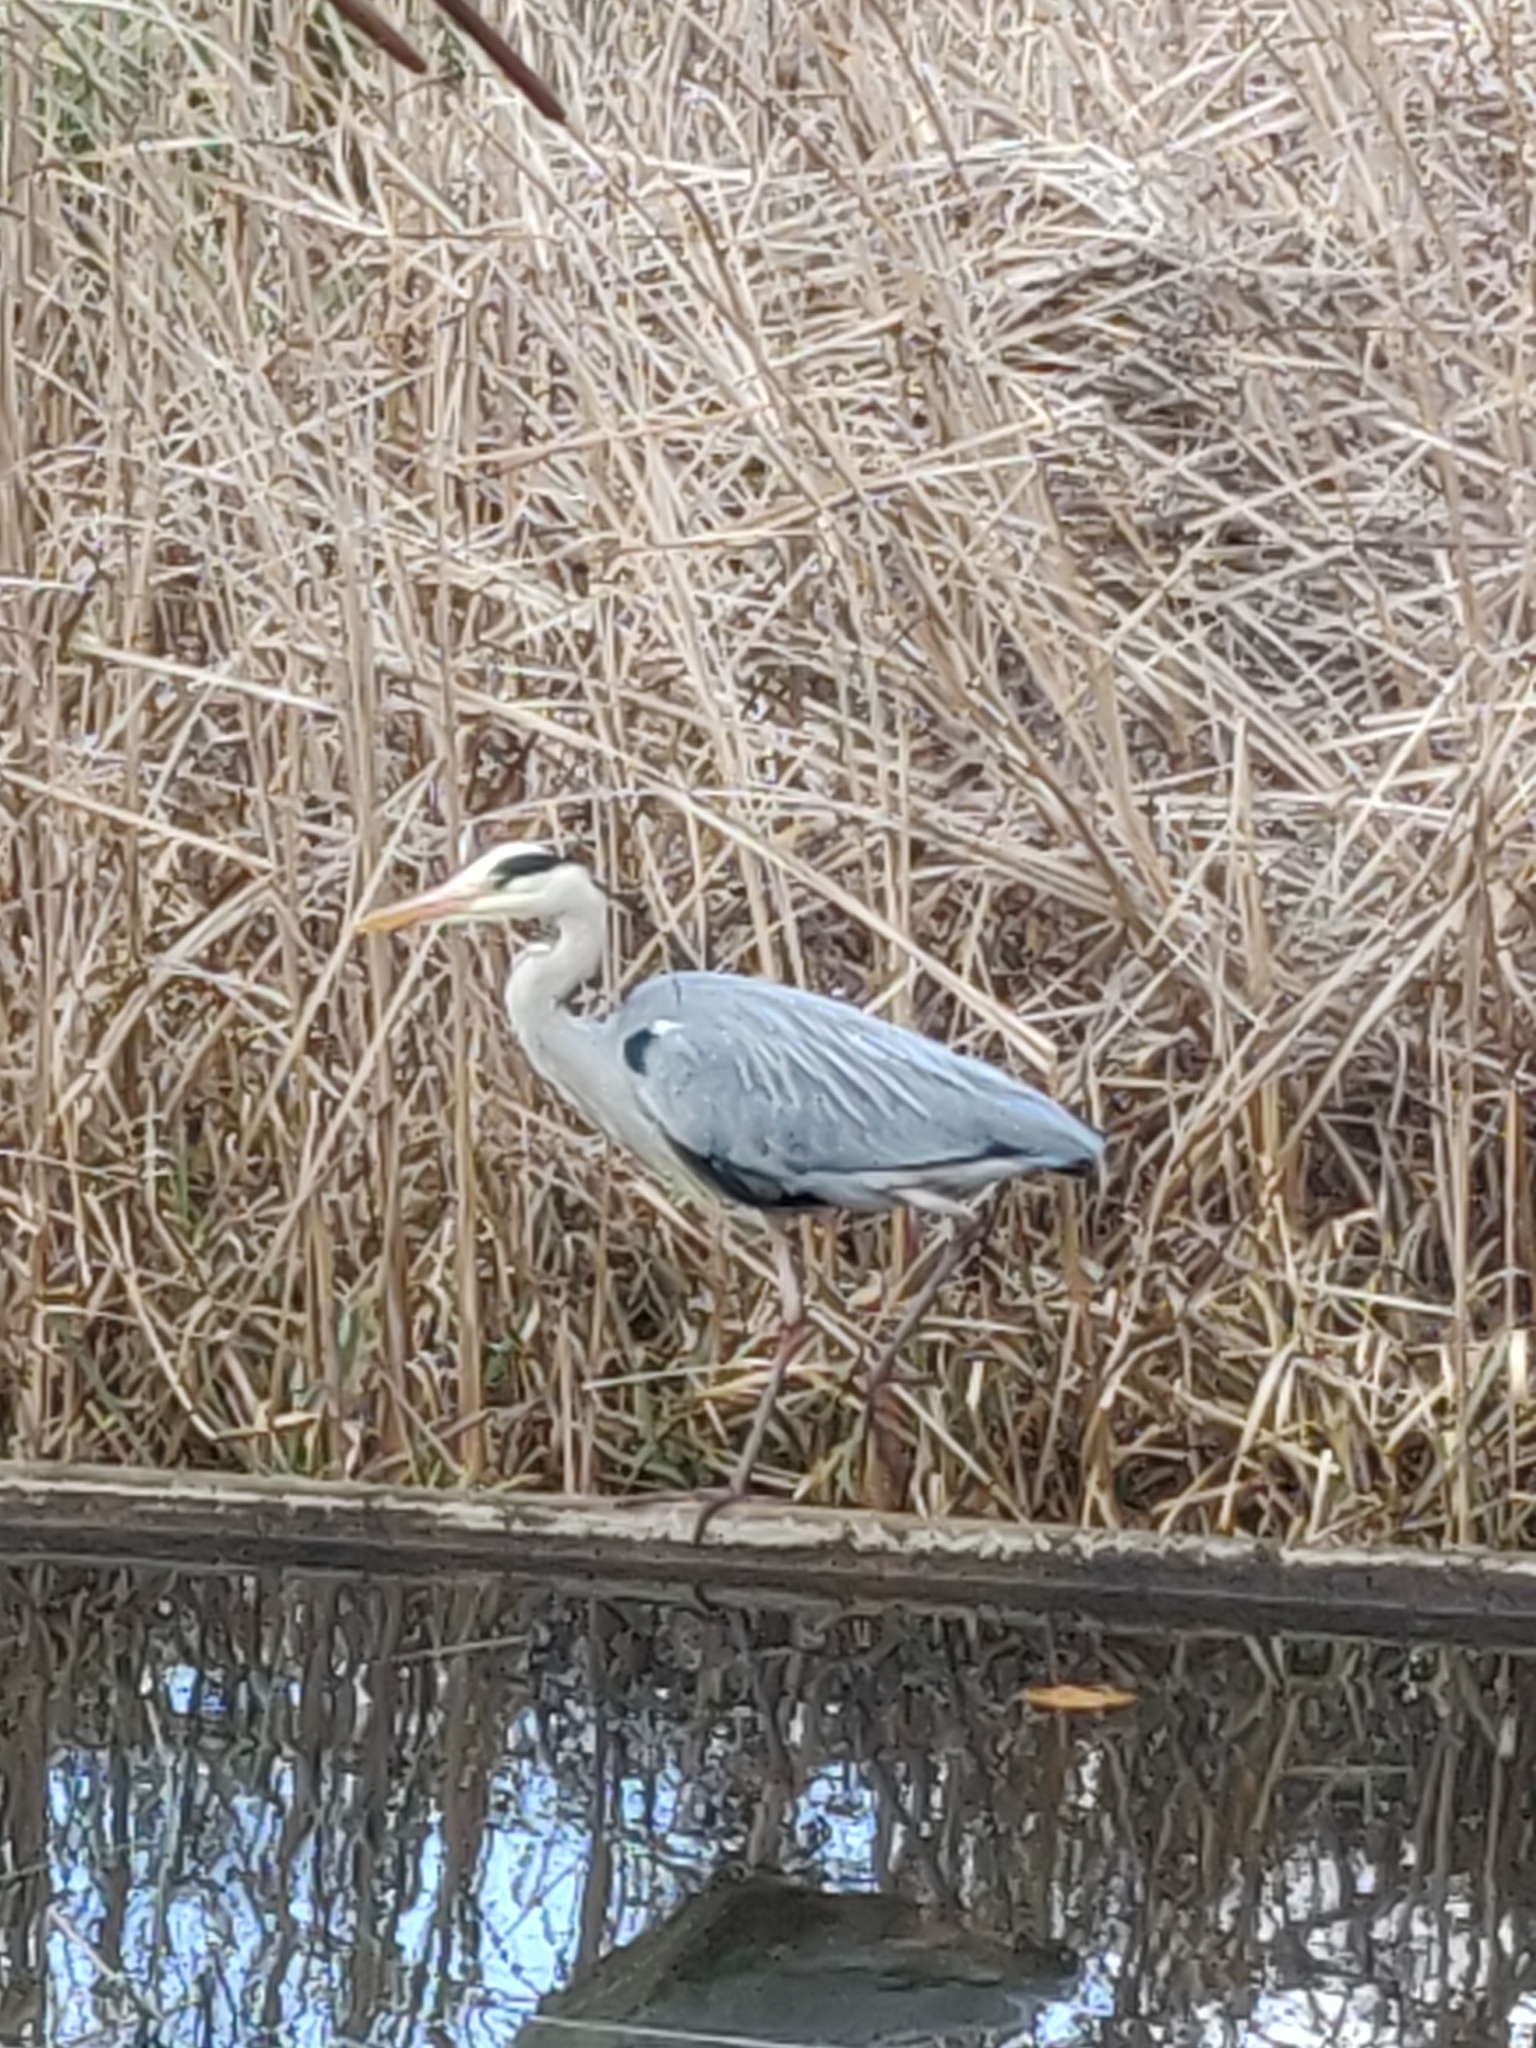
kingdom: Animalia
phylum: Chordata
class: Aves
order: Pelecaniformes
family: Ardeidae
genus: Ardea
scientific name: Ardea cinerea
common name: Grey heron
